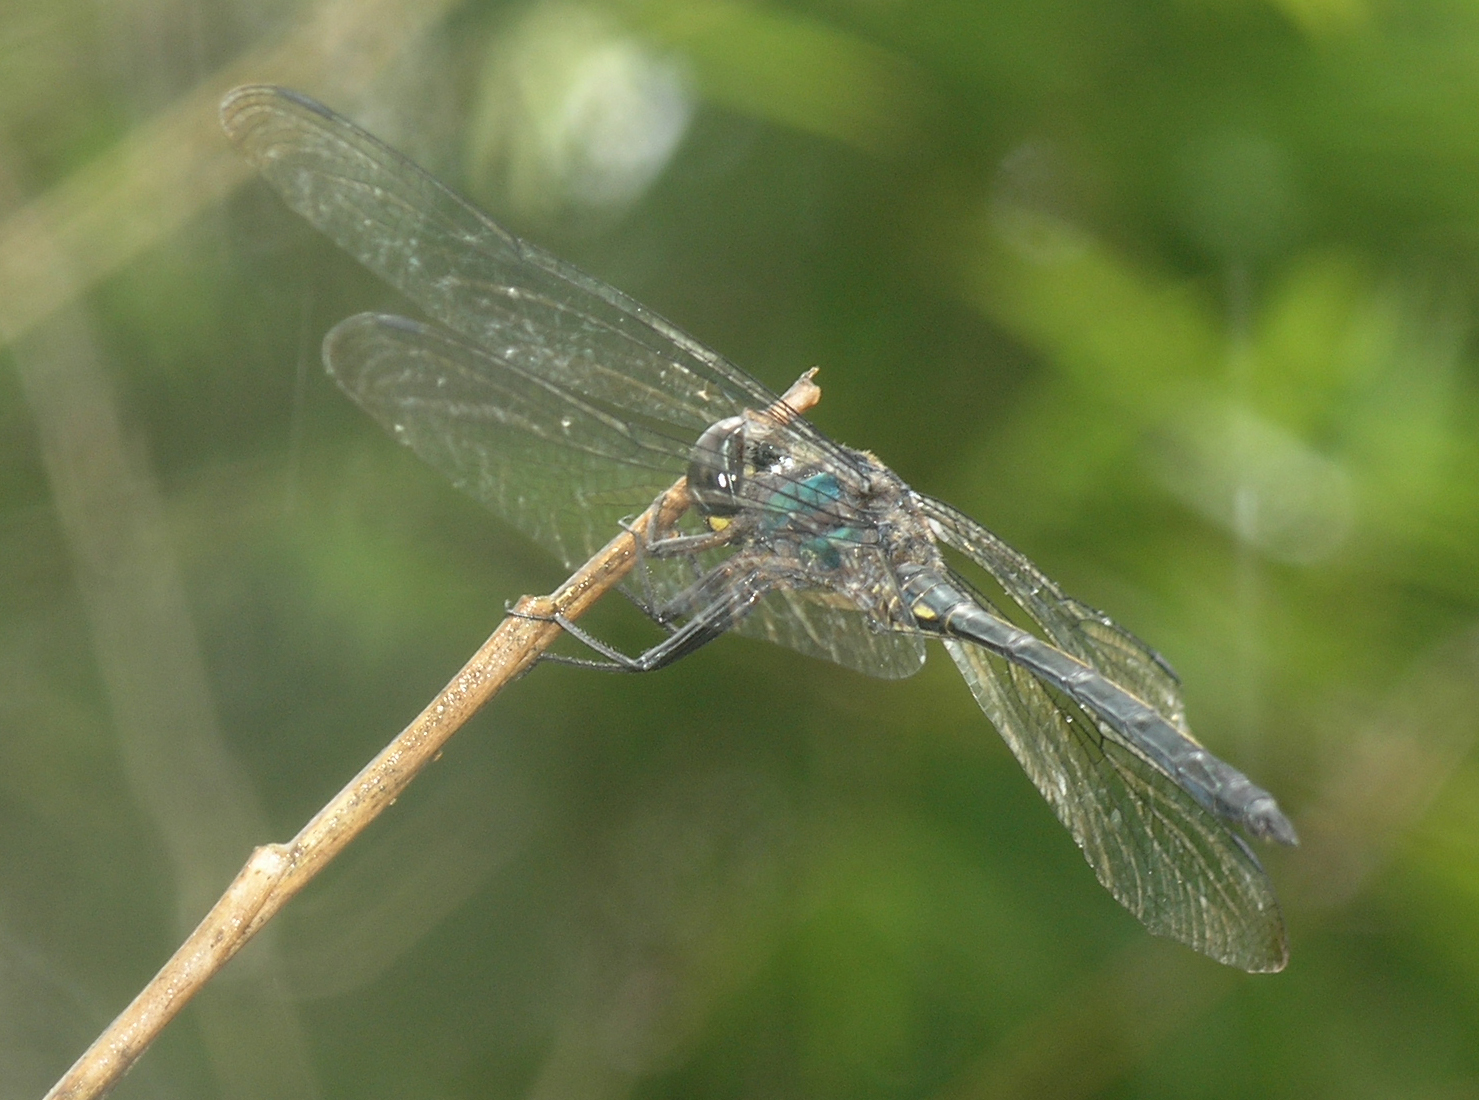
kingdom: Animalia
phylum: Arthropoda
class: Insecta
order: Odonata
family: Libellulidae
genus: Zygonyx
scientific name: Zygonyx iris
